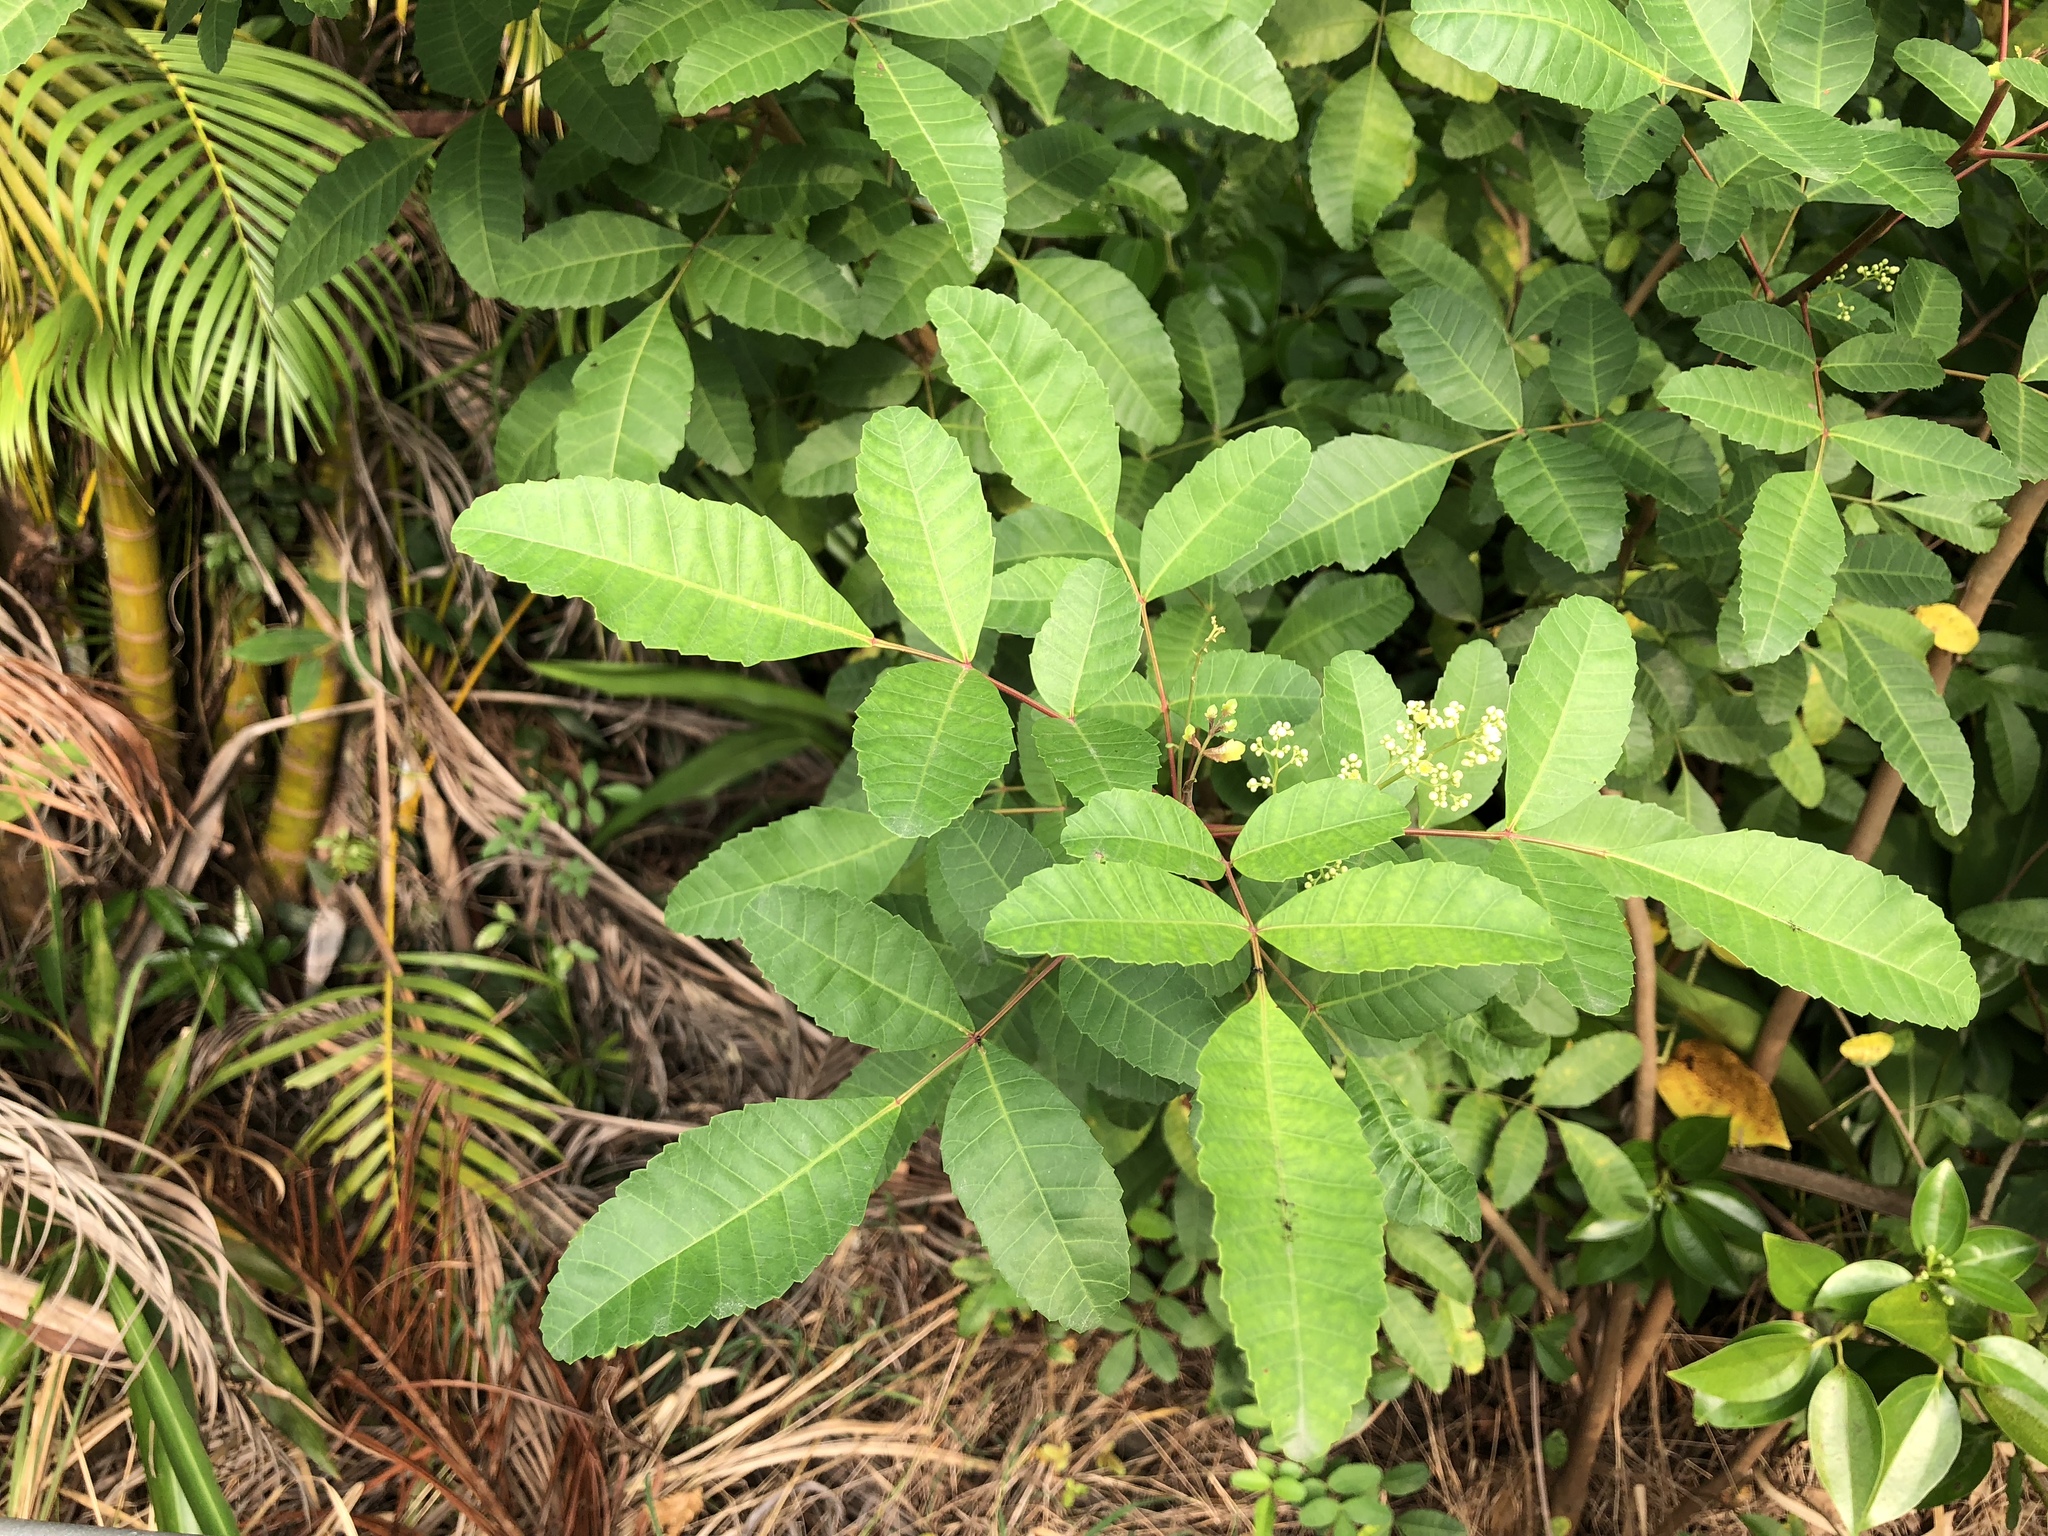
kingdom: Plantae
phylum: Tracheophyta
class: Magnoliopsida
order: Sapindales
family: Anacardiaceae
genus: Schinus
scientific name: Schinus terebinthifolia
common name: Brazilian peppertree
